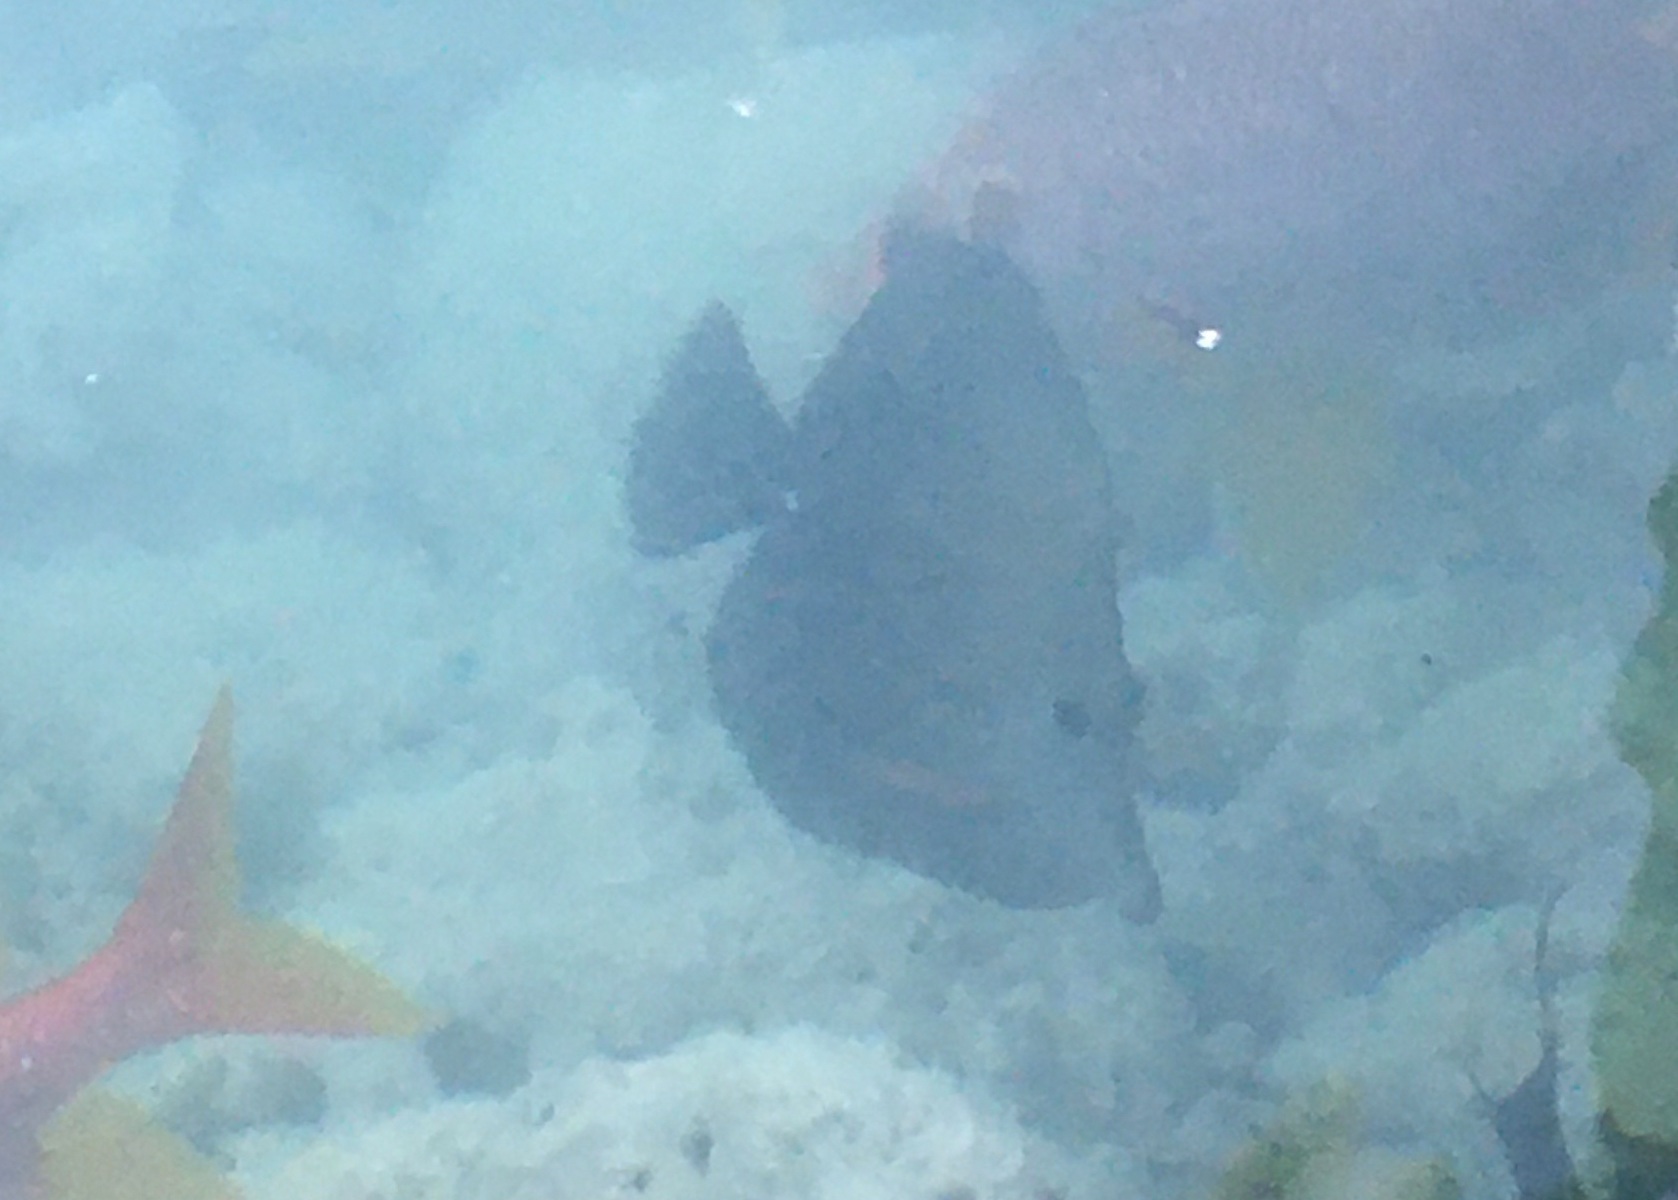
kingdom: Animalia
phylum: Chordata
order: Perciformes
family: Acanthuridae
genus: Zebrasoma
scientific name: Zebrasoma scopas
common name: Twotone tang
